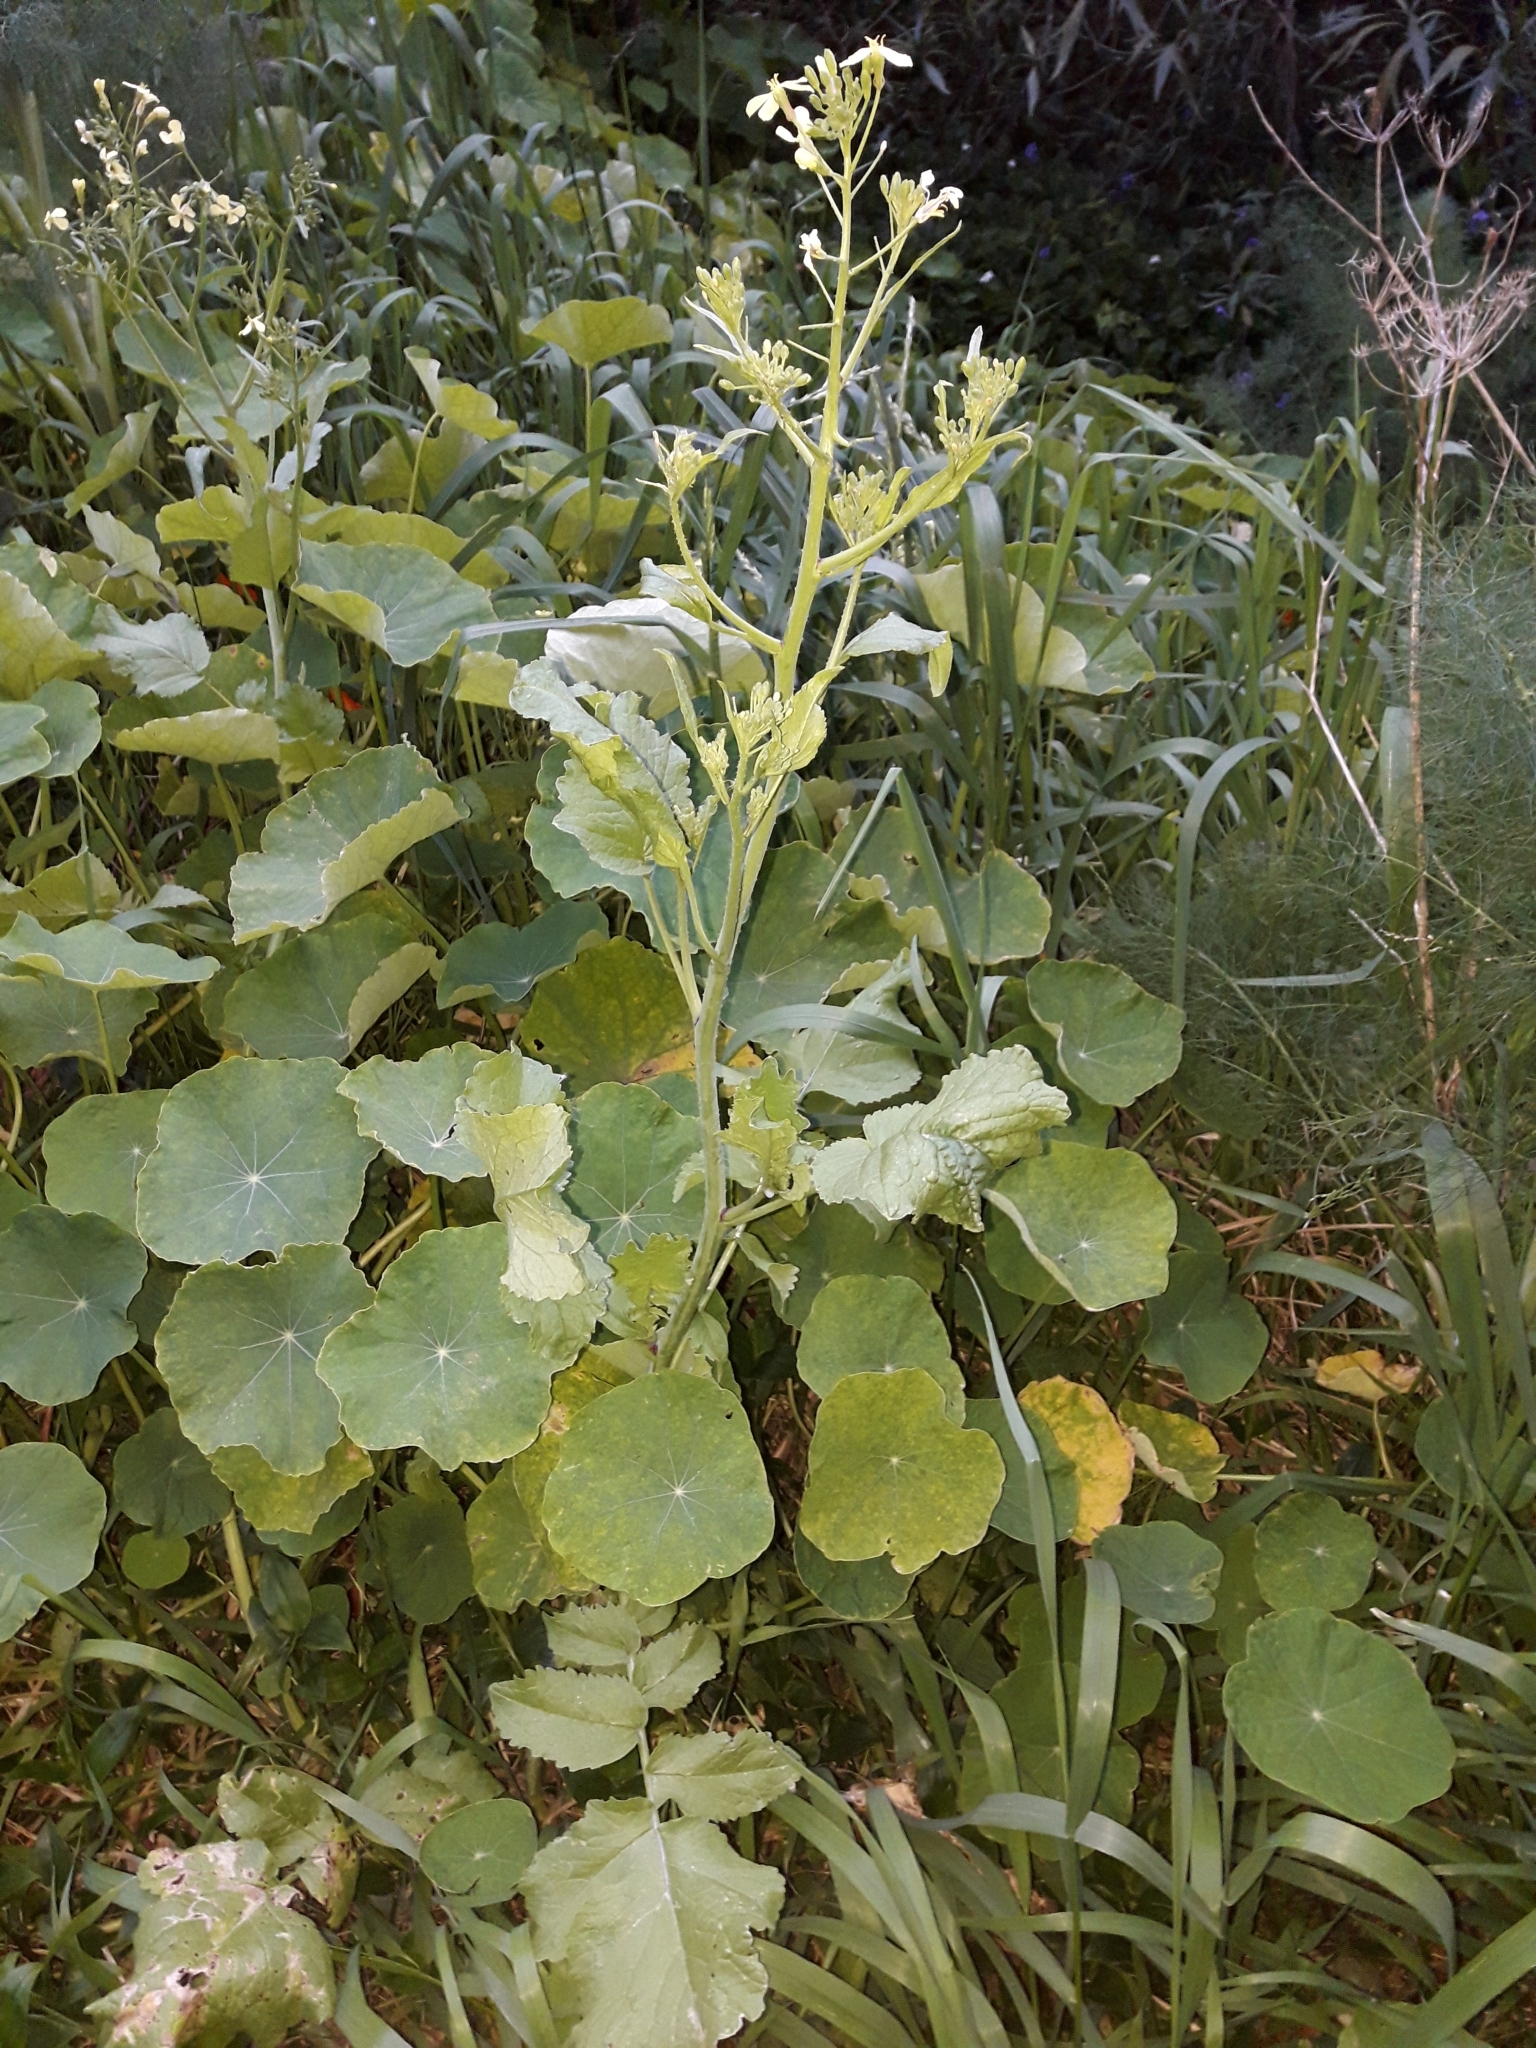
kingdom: Plantae
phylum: Tracheophyta
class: Magnoliopsida
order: Brassicales
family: Brassicaceae
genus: Raphanus
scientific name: Raphanus raphanistrum
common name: Wild radish
